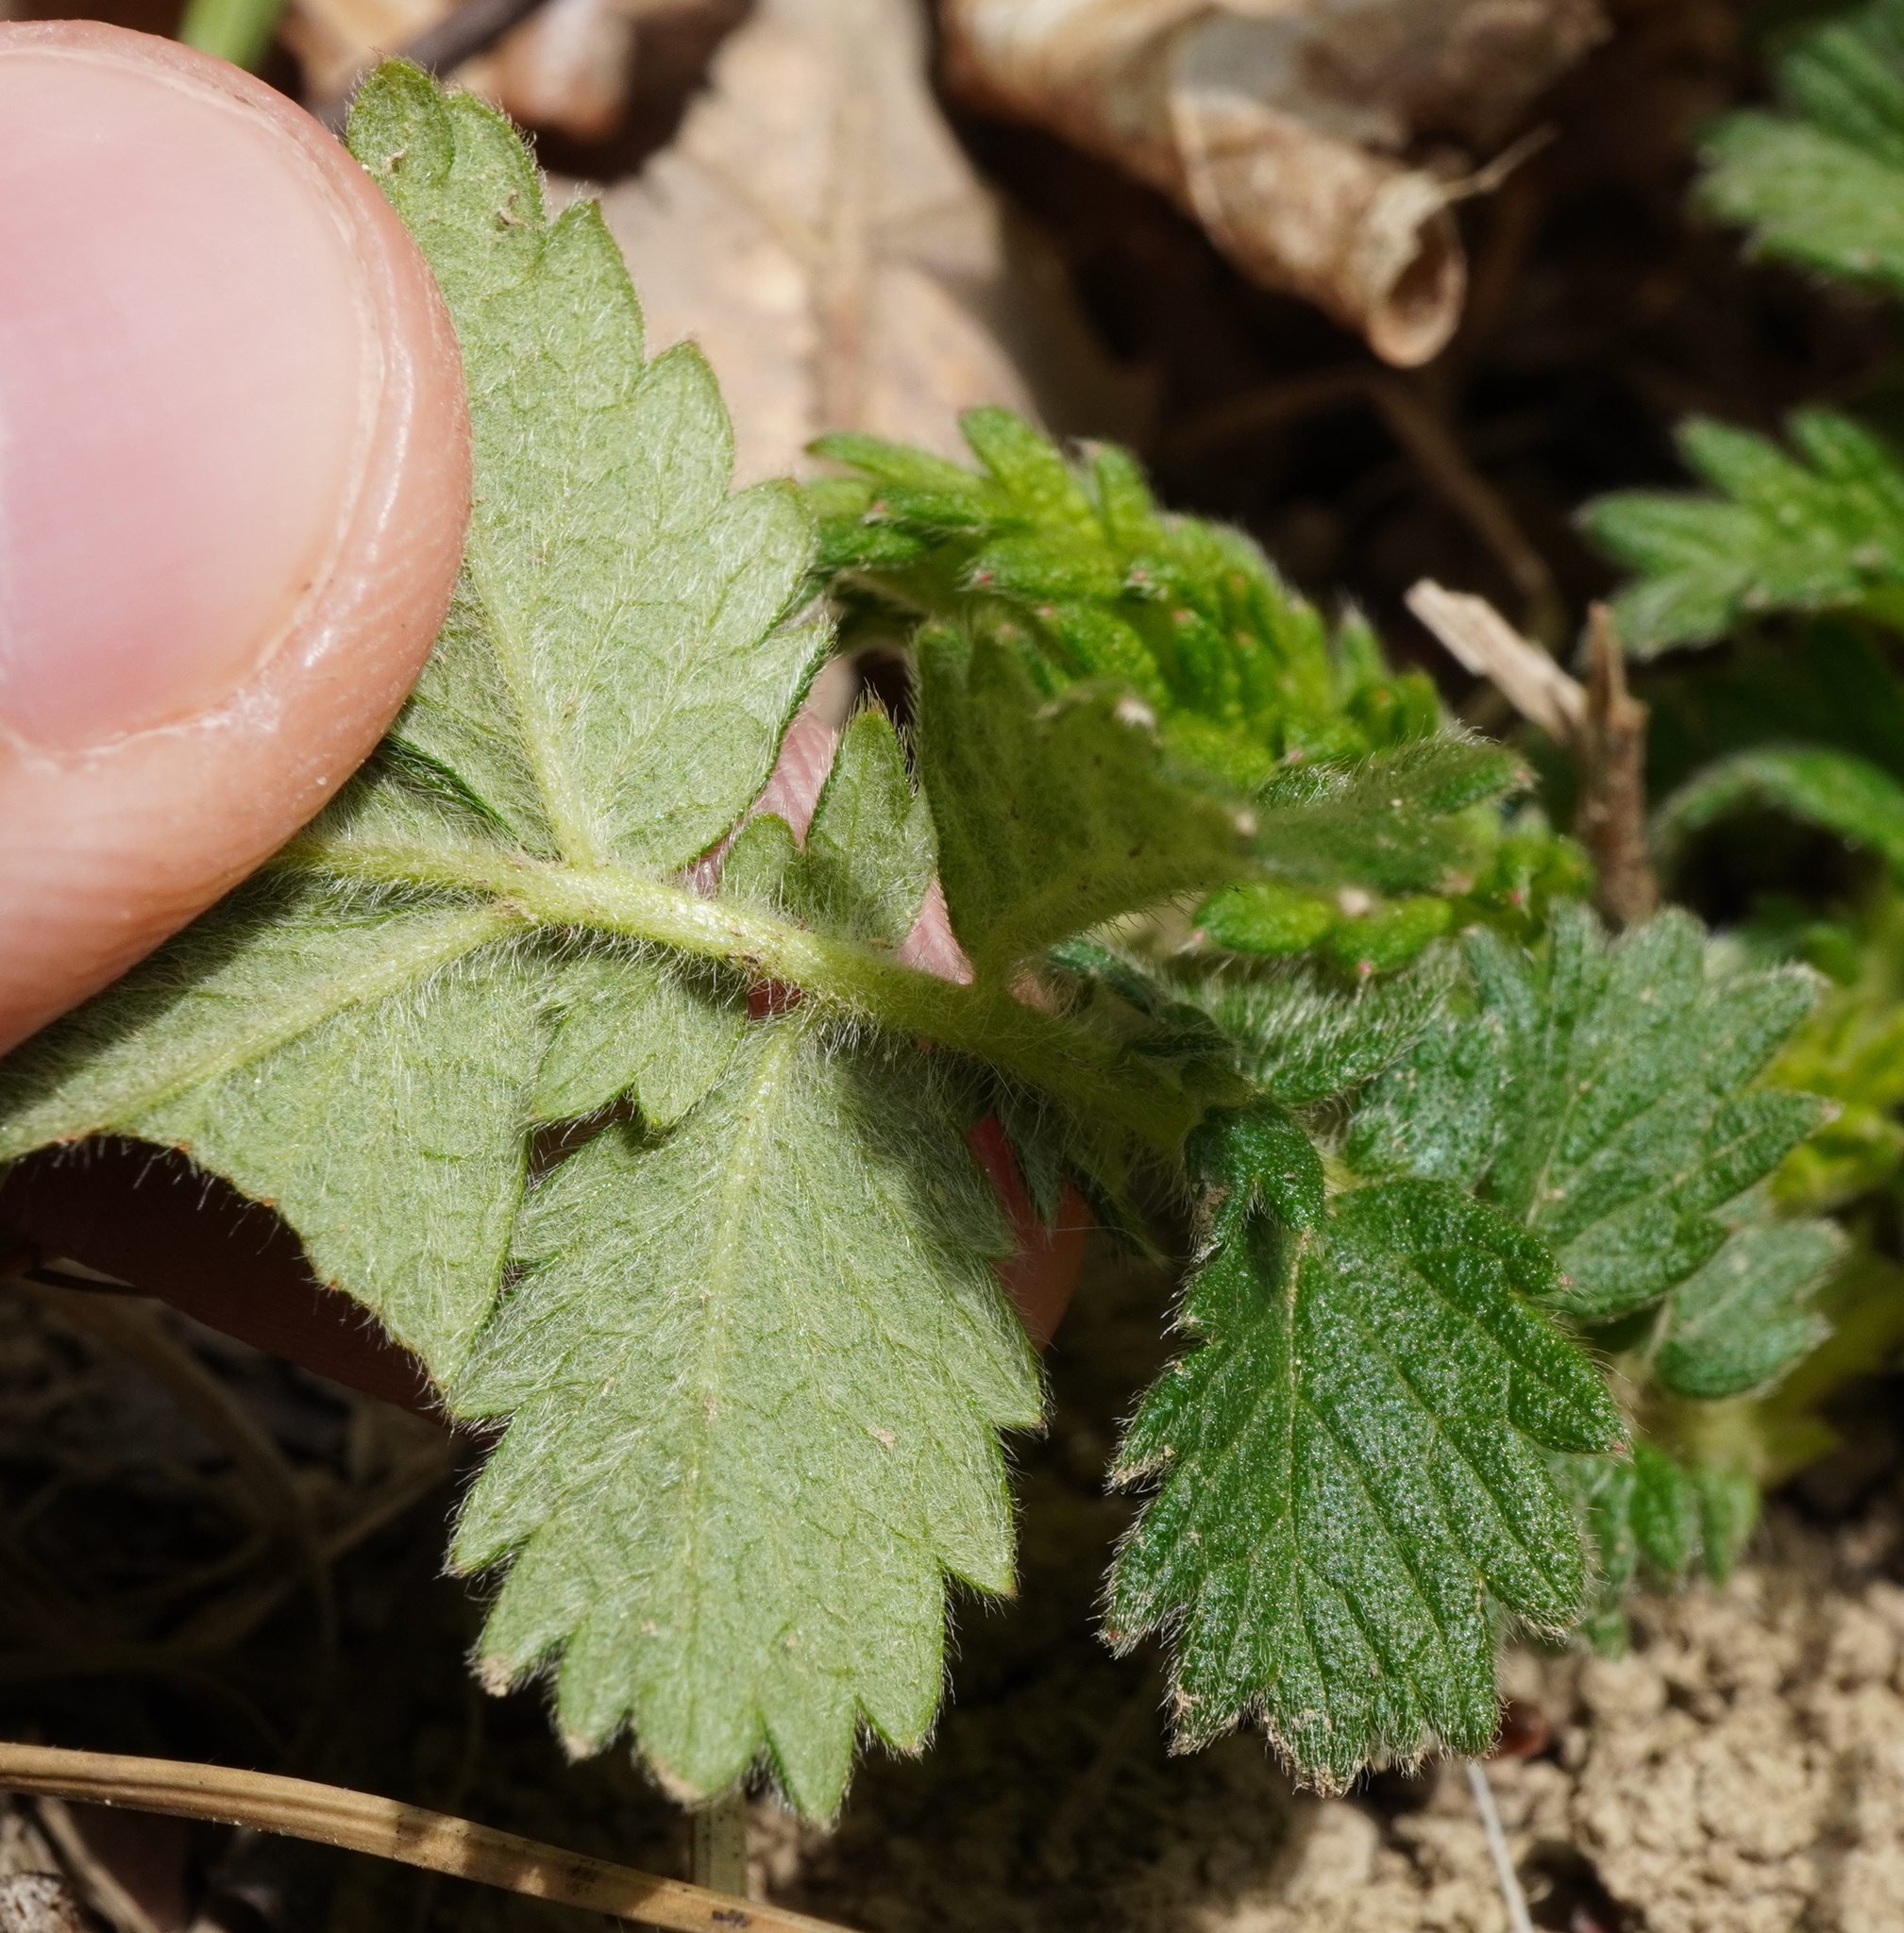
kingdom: Plantae
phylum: Tracheophyta
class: Magnoliopsida
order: Rosales
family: Rosaceae
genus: Agrimonia
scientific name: Agrimonia eupatoria
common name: Agrimony
